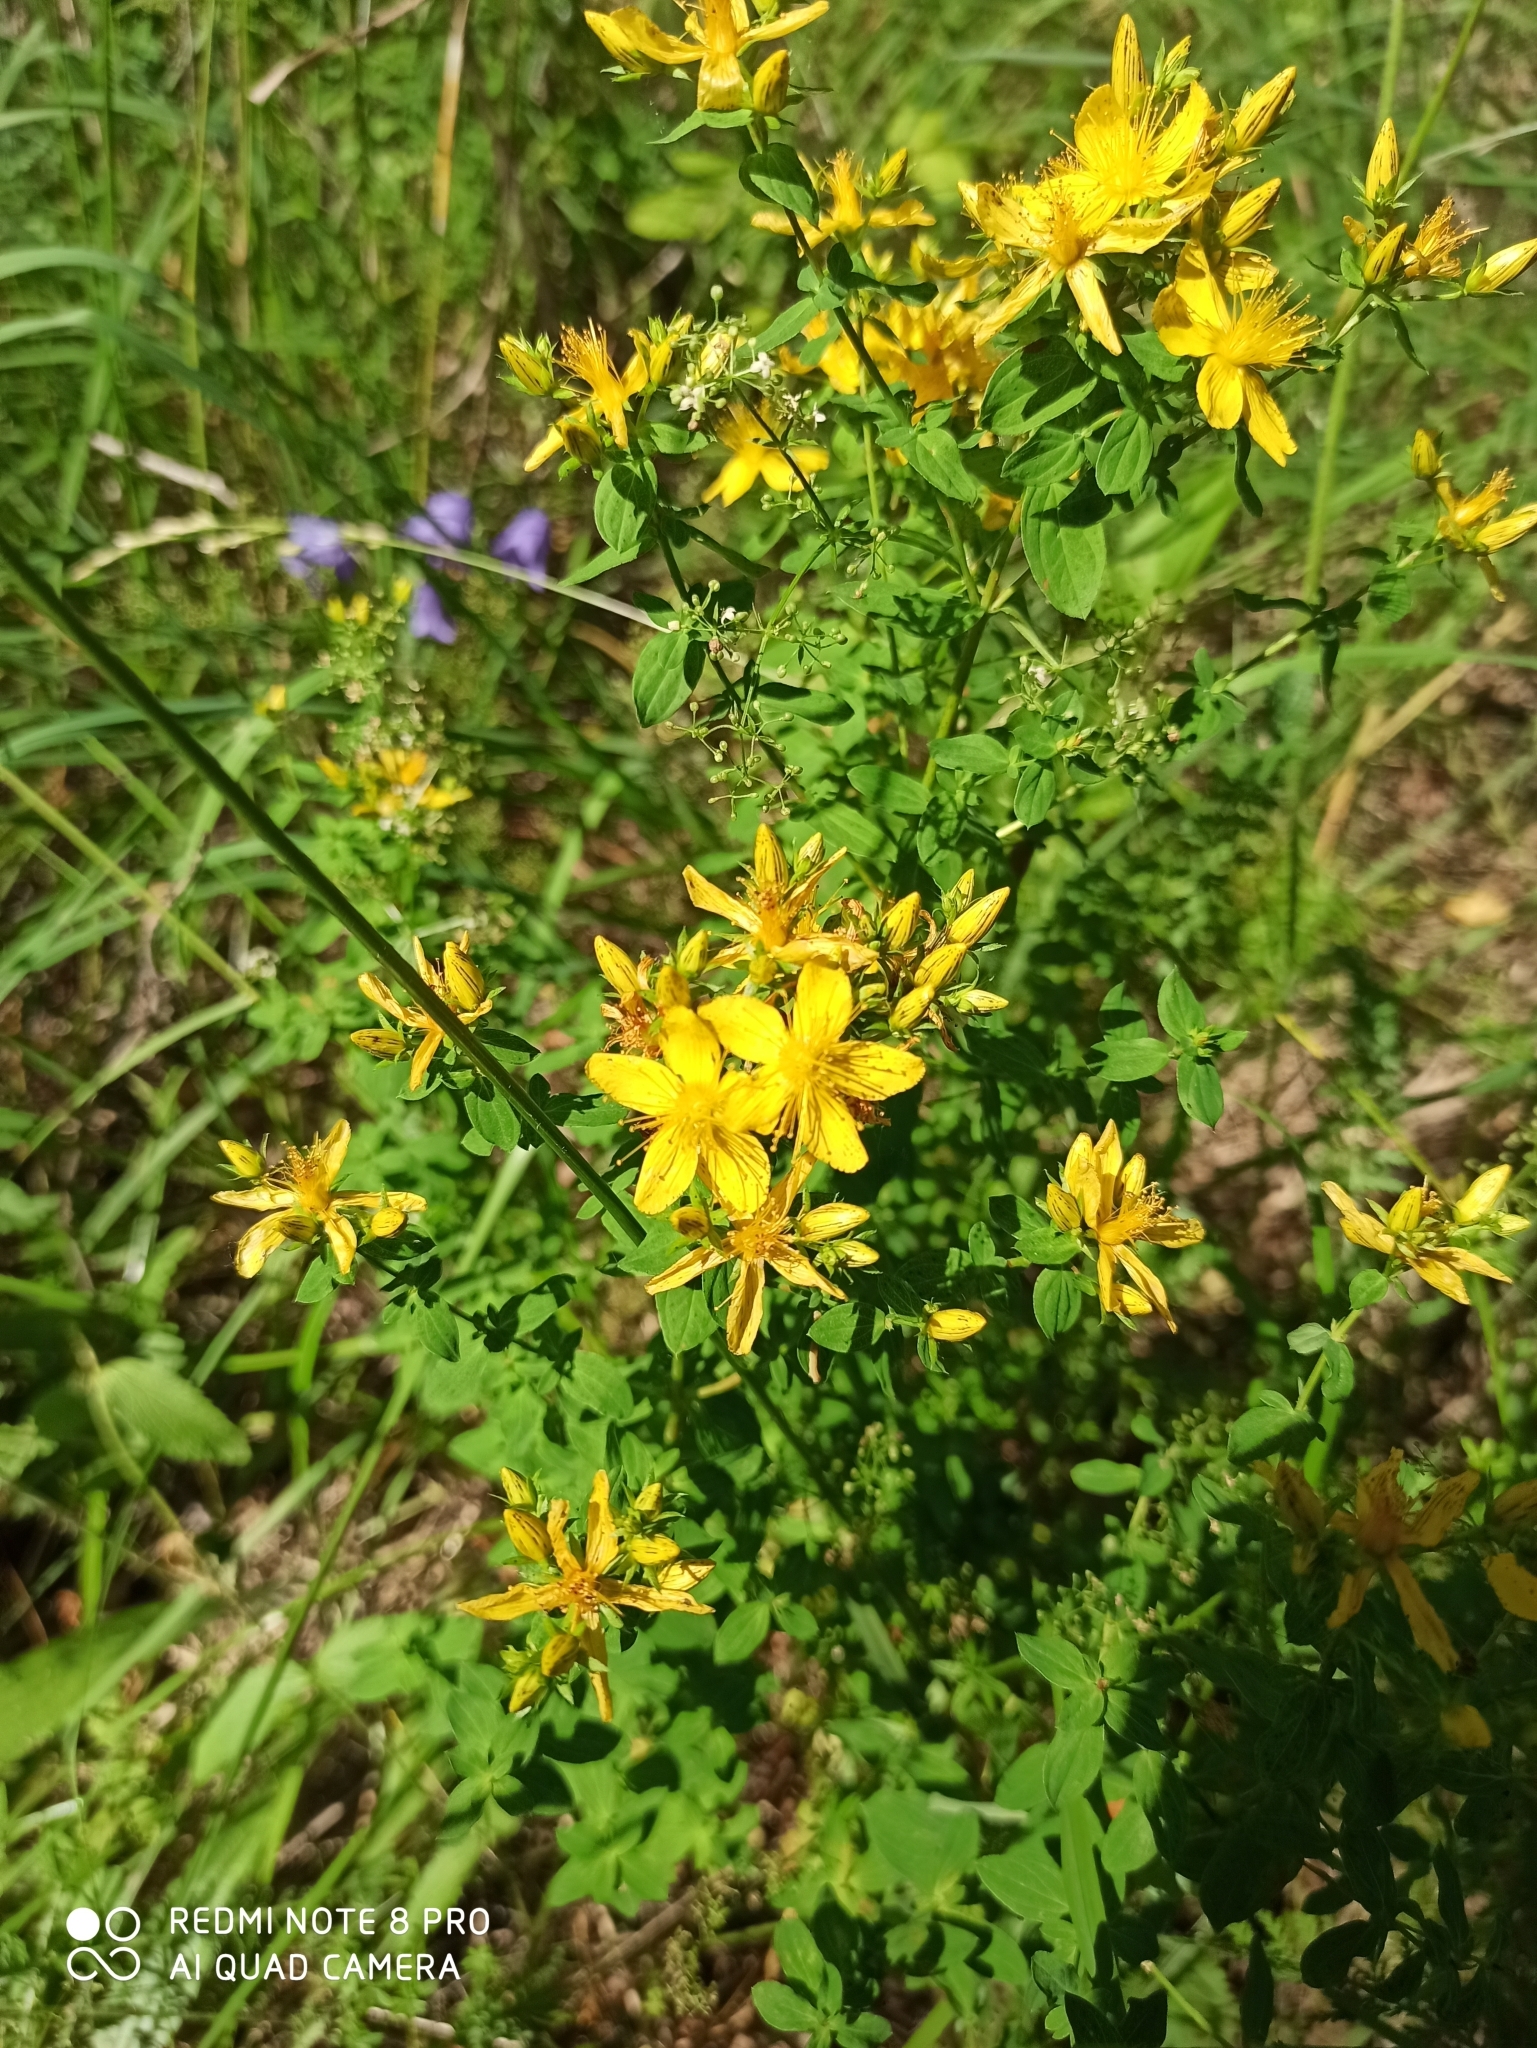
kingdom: Plantae
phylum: Tracheophyta
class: Magnoliopsida
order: Malpighiales
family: Hypericaceae
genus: Hypericum
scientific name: Hypericum perforatum
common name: Common st. johnswort
